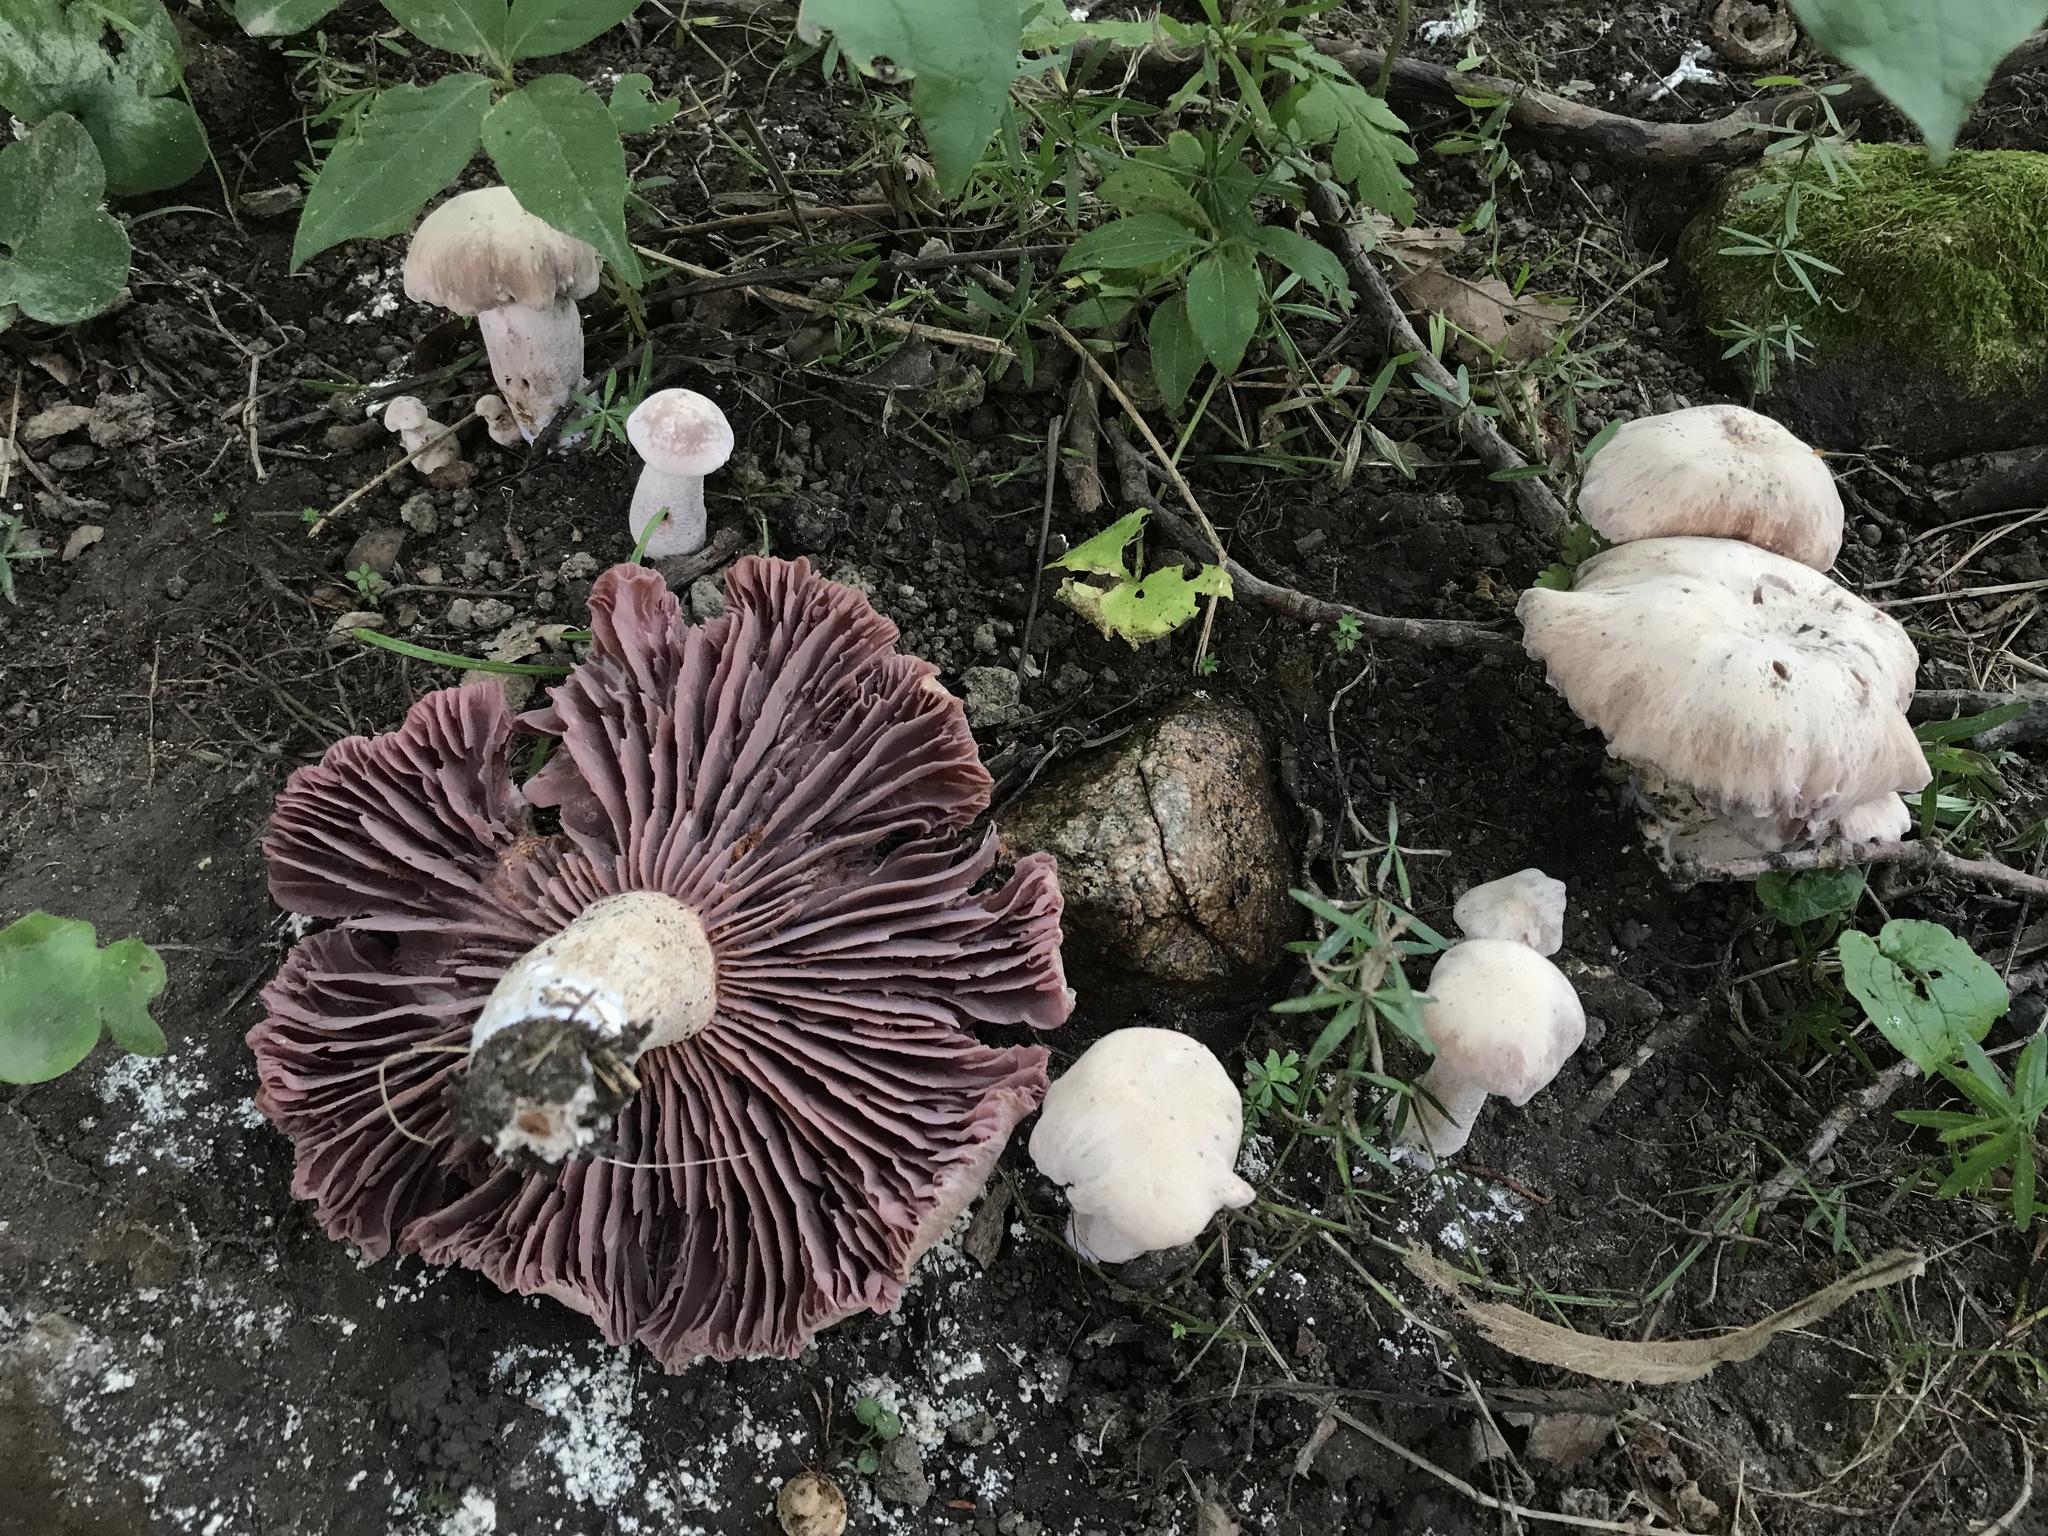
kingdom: Fungi
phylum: Basidiomycota
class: Agaricomycetes
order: Agaricales
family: Hydnangiaceae
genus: Laccaria
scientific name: Laccaria ochropurpurea
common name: Purple laccaria
